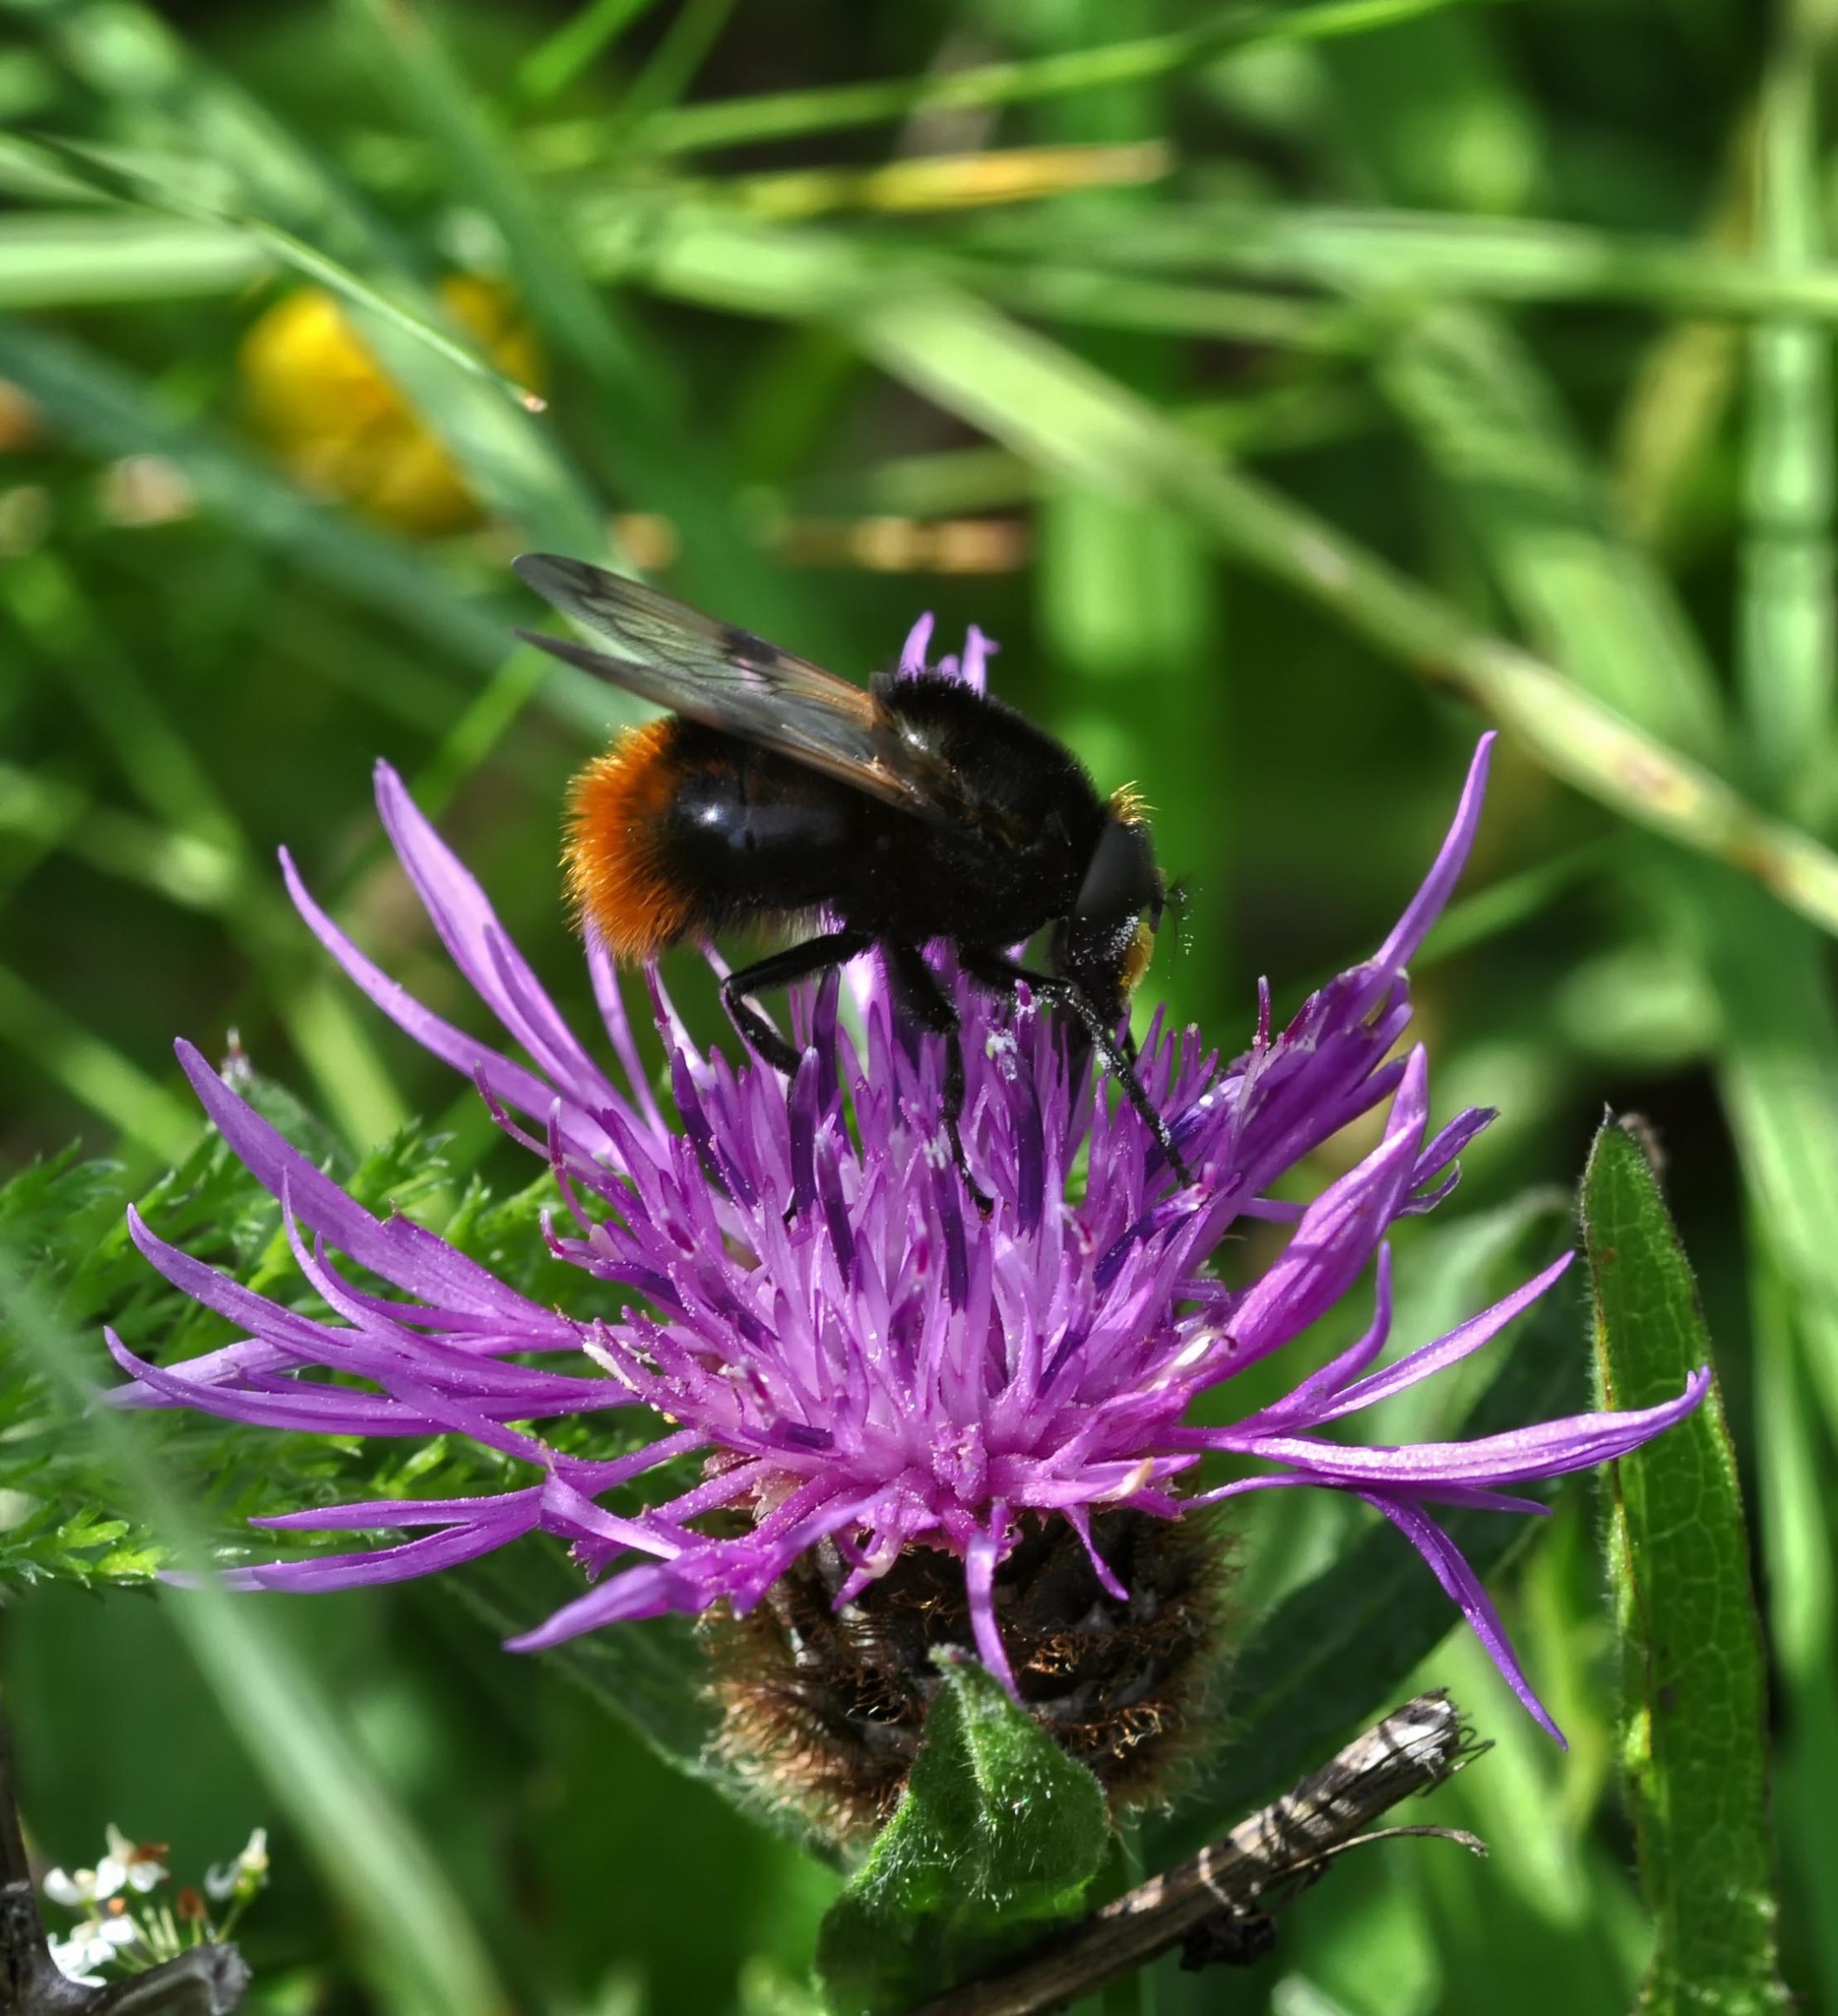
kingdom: Animalia
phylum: Arthropoda
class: Insecta
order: Diptera
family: Syrphidae
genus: Volucella
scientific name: Volucella bombylans
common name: Bumble bee hover fly
